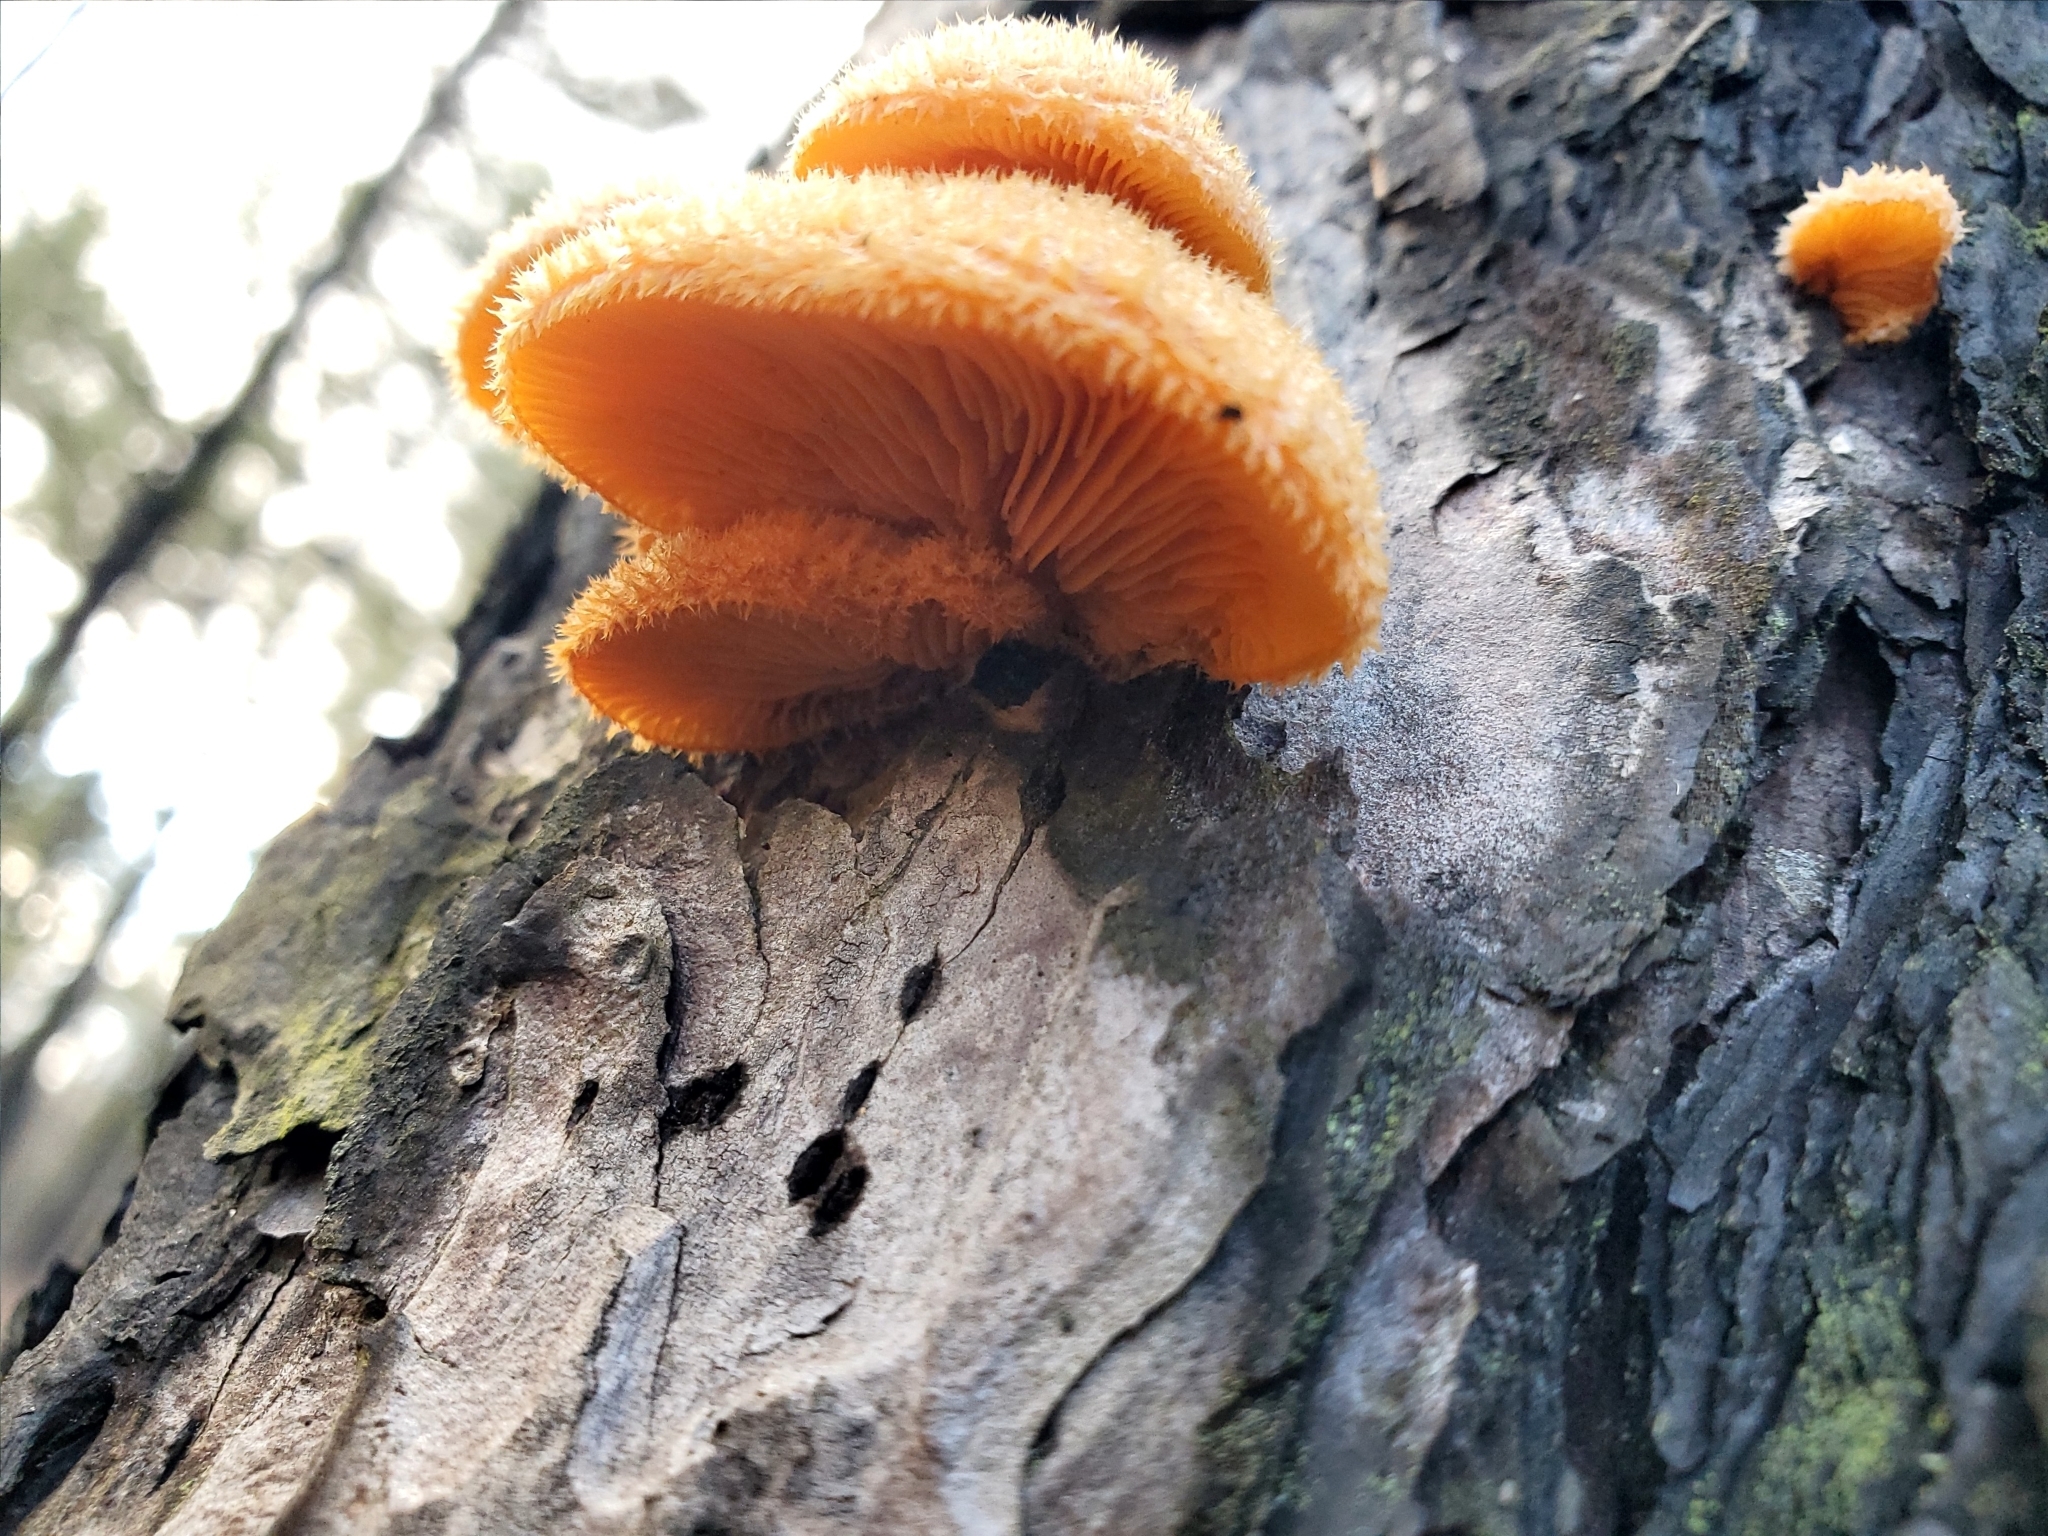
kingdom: Fungi
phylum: Basidiomycota
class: Agaricomycetes
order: Agaricales
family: Phyllotopsidaceae
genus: Phyllotopsis
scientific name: Phyllotopsis nidulans
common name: Orange mock oyster
